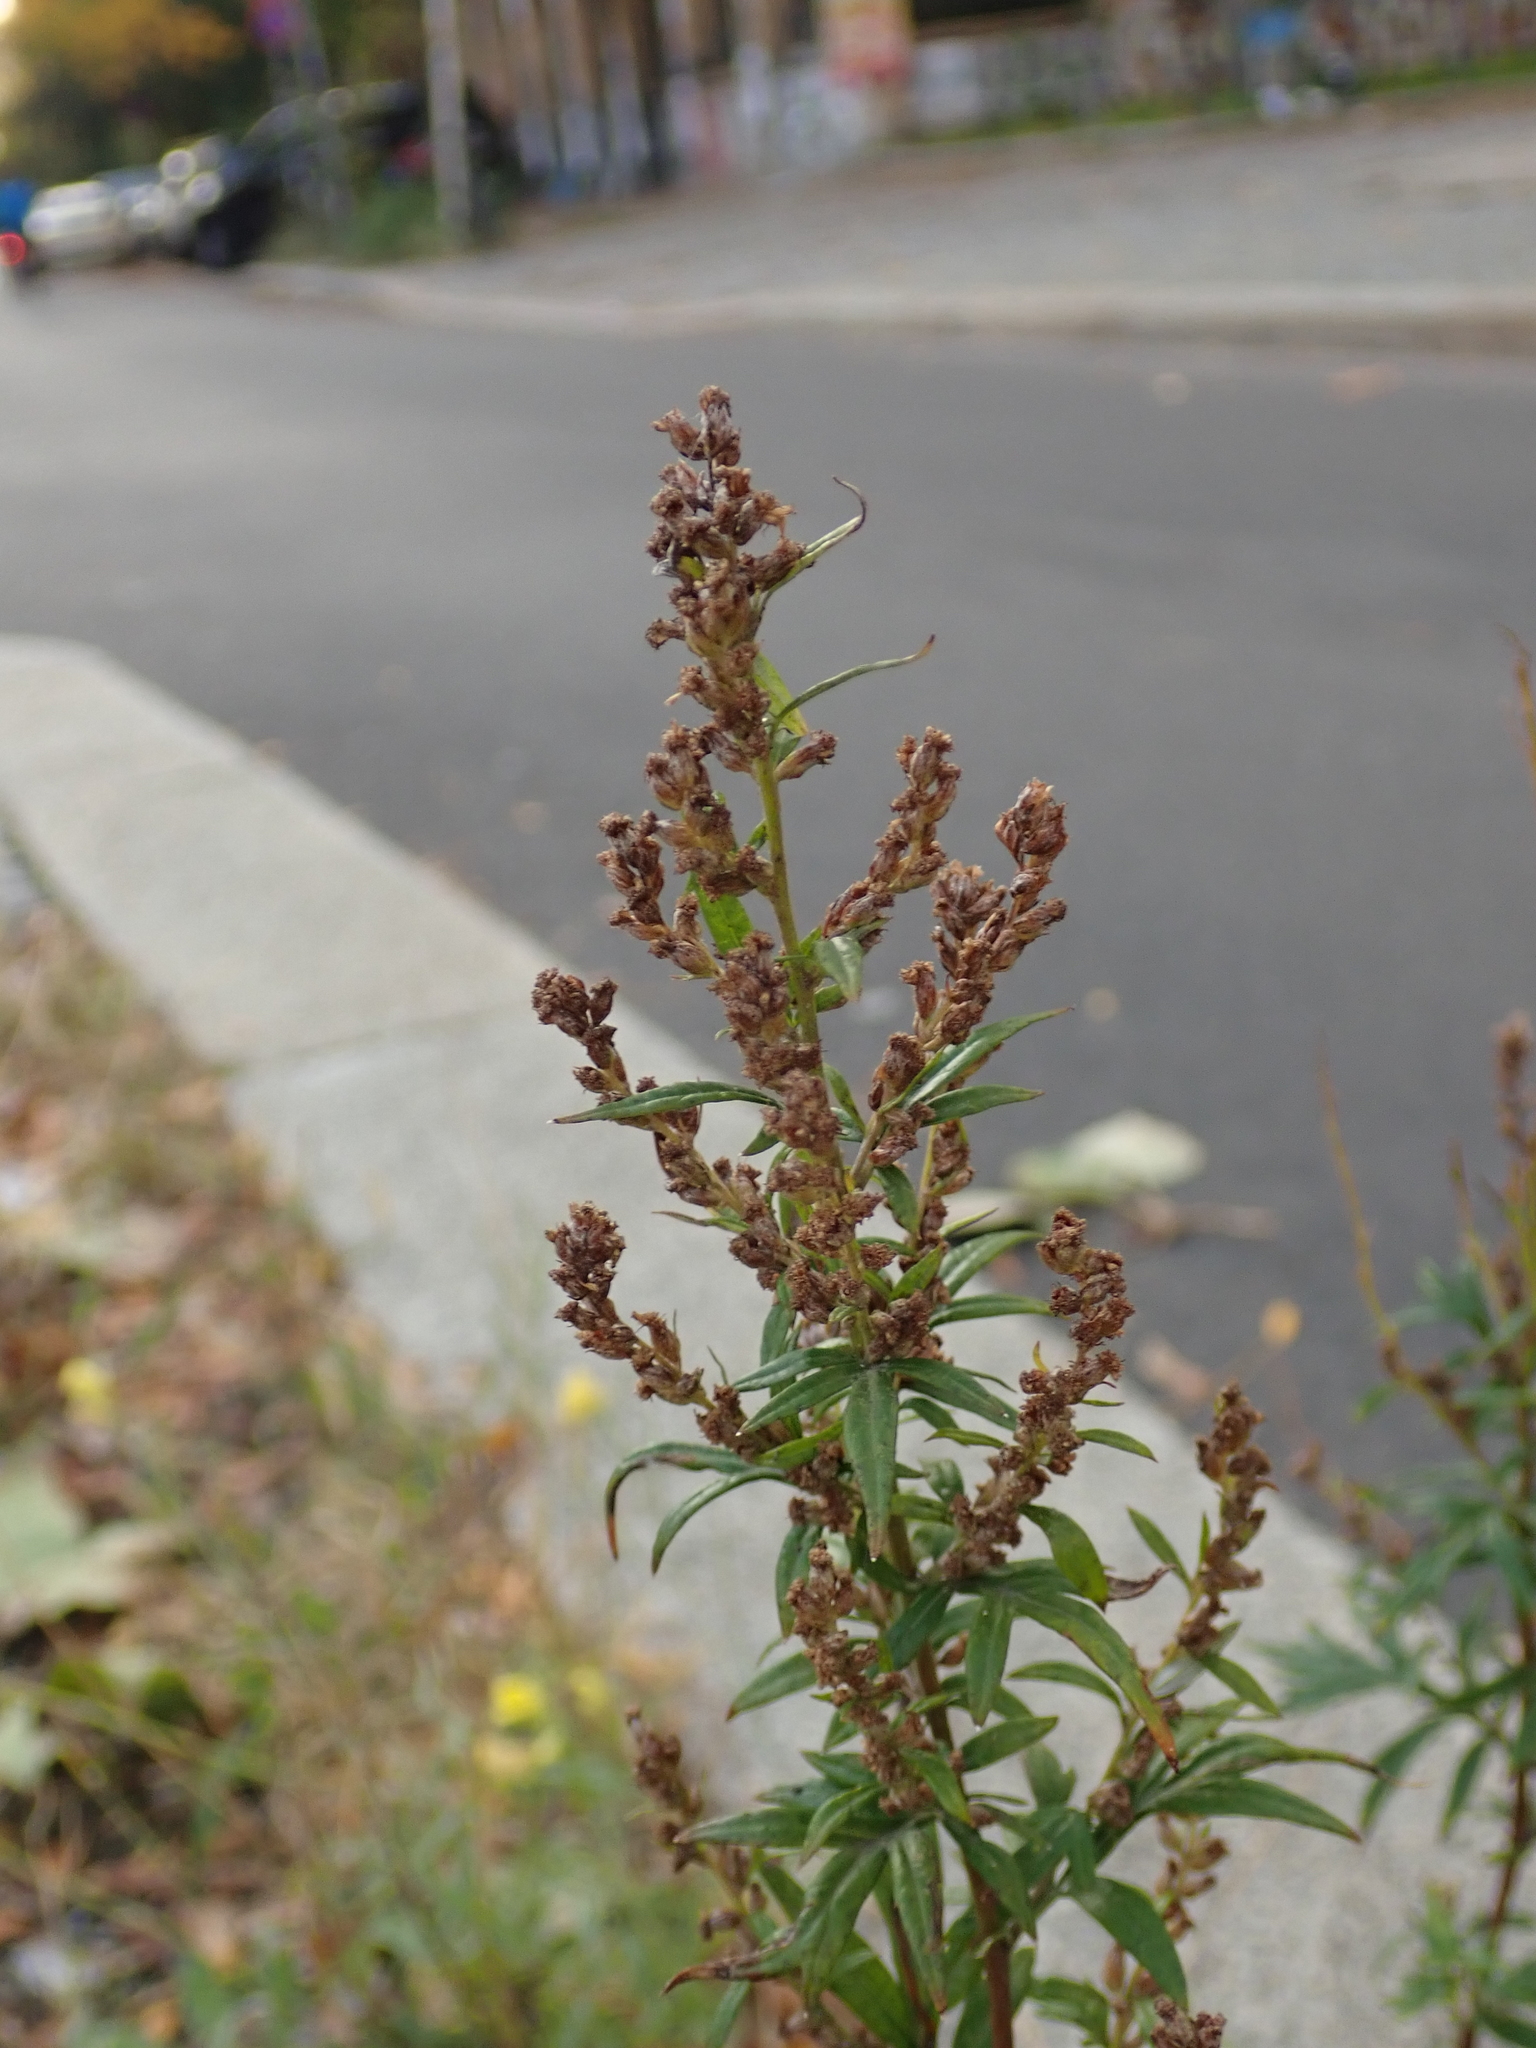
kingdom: Plantae
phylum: Tracheophyta
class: Magnoliopsida
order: Asterales
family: Asteraceae
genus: Artemisia
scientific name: Artemisia vulgaris
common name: Mugwort
